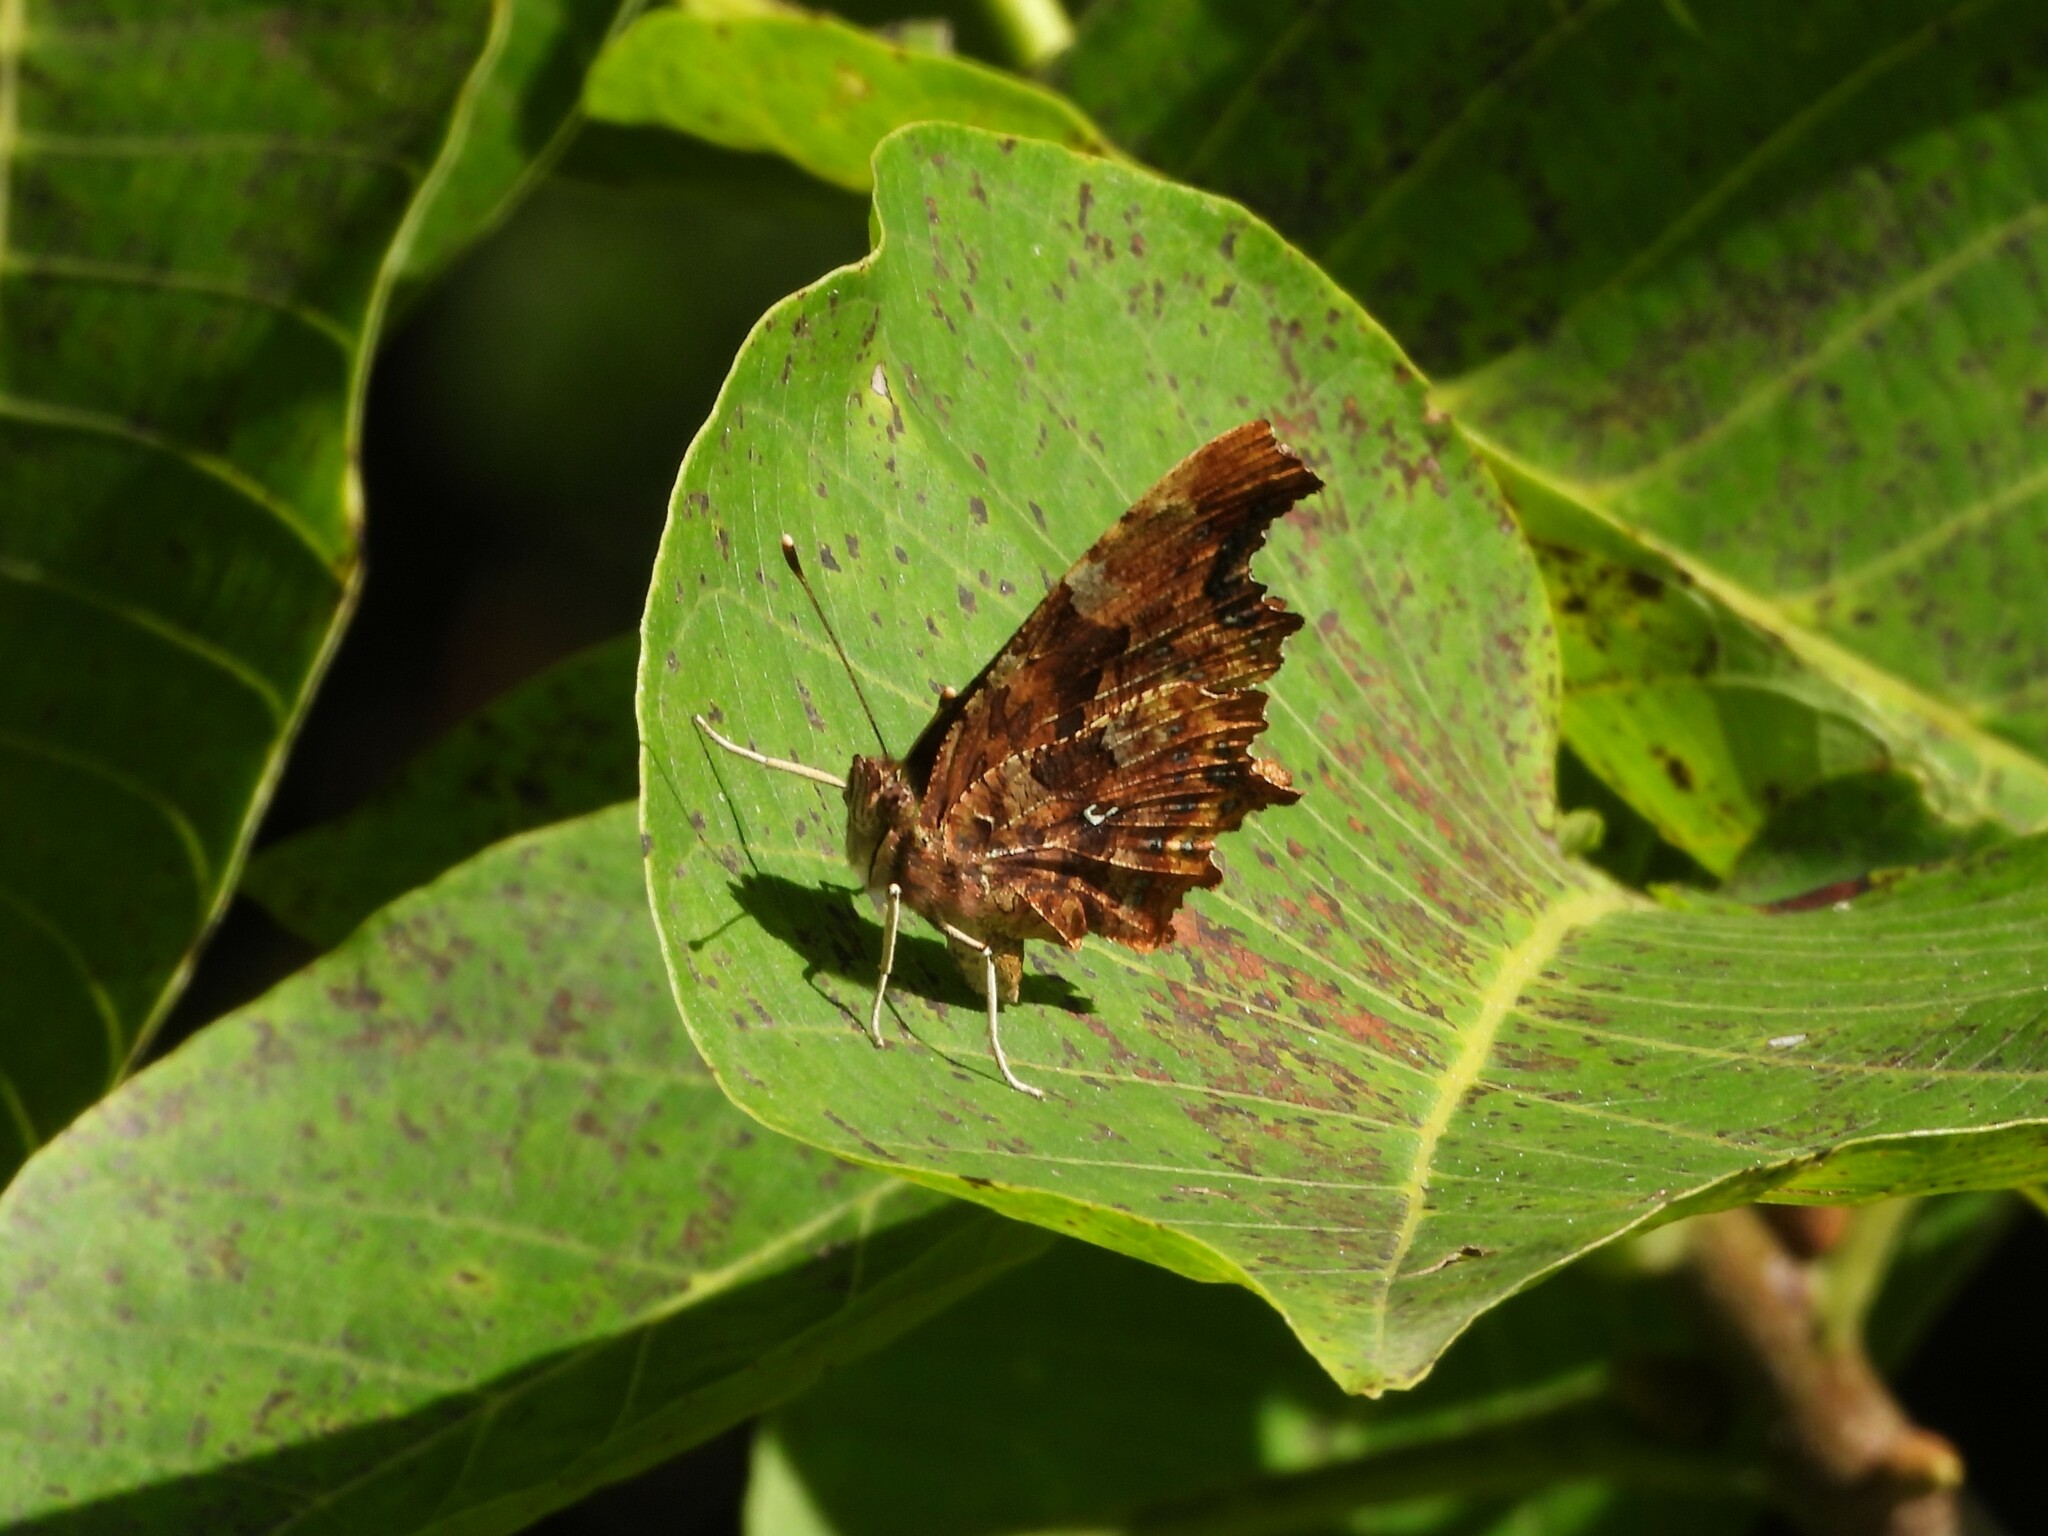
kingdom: Animalia
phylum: Arthropoda
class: Insecta
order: Lepidoptera
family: Nymphalidae
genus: Polygonia
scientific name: Polygonia c-album
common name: Comma
